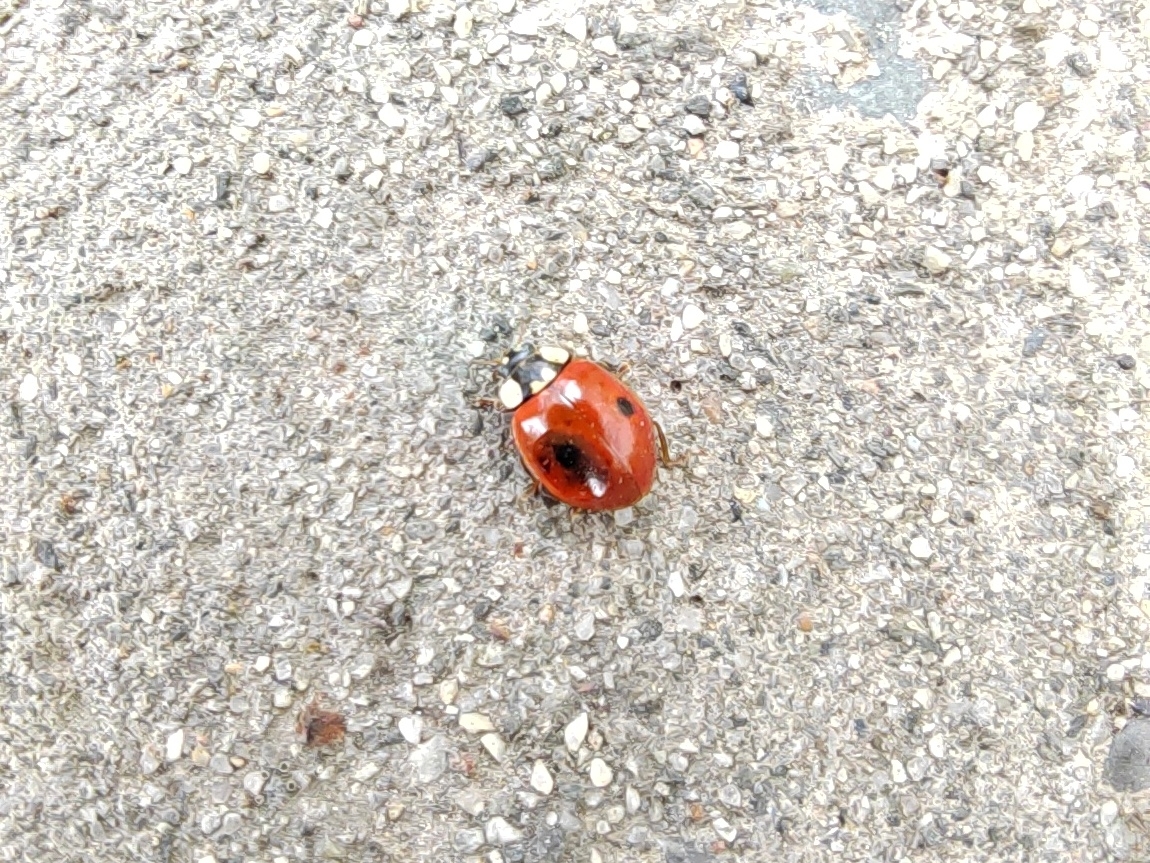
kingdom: Animalia
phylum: Arthropoda
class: Insecta
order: Coleoptera
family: Coccinellidae
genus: Adalia
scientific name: Adalia bipunctata
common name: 2-spot ladybird
